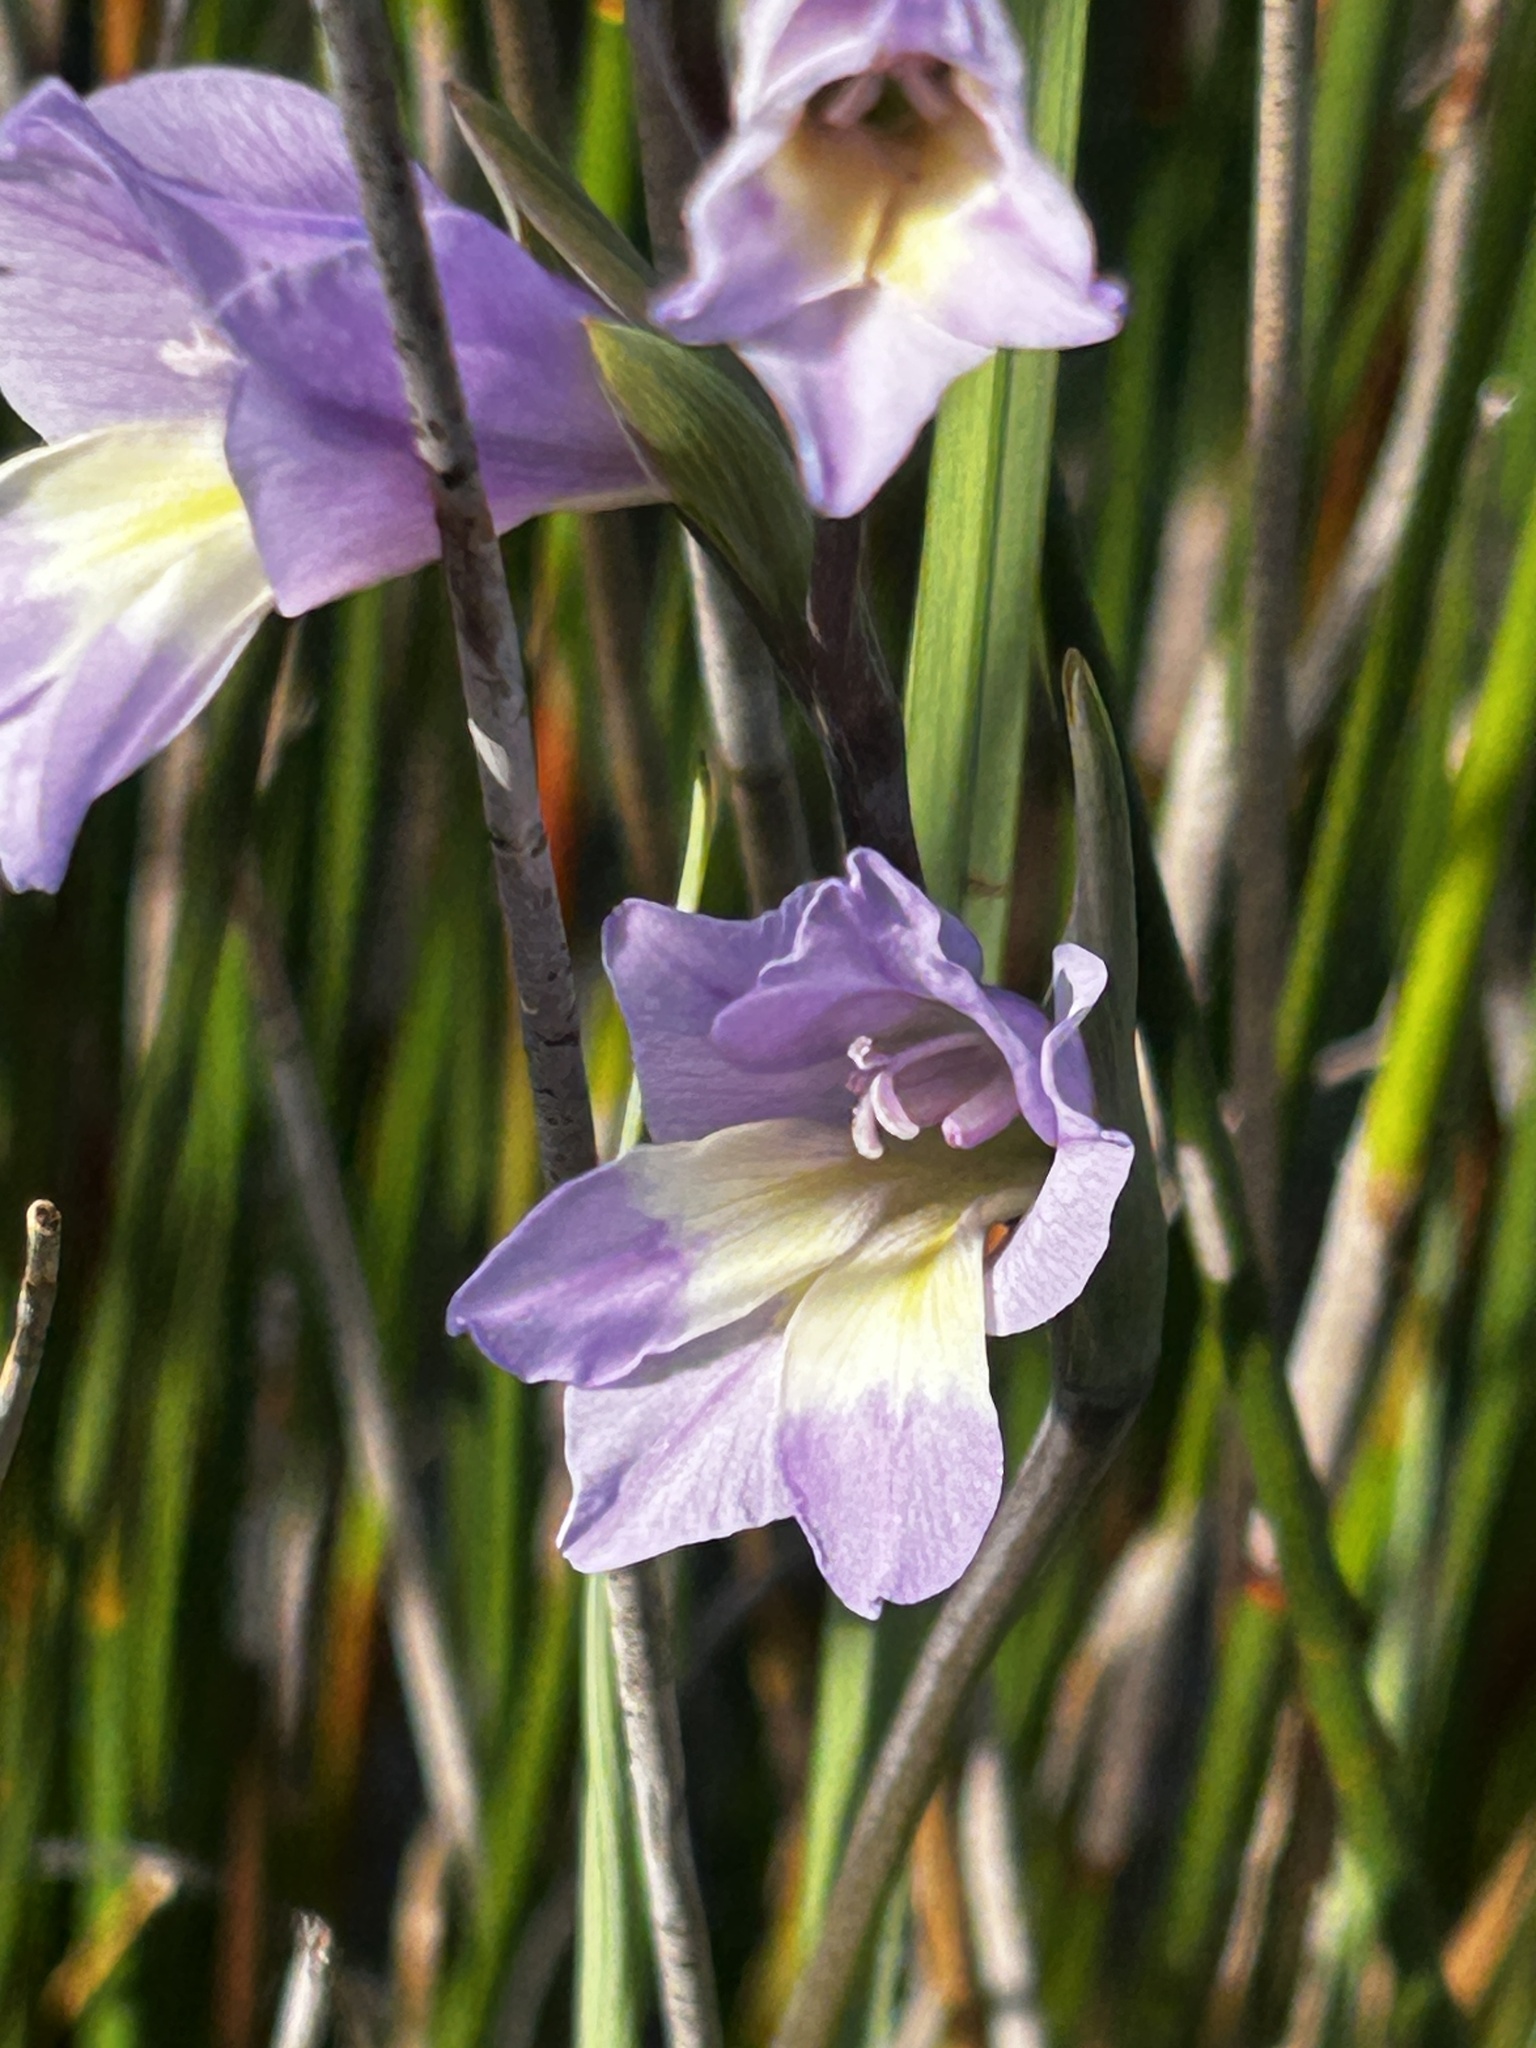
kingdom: Plantae
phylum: Tracheophyta
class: Liliopsida
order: Asparagales
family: Iridaceae
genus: Gladiolus
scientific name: Gladiolus carinatus
